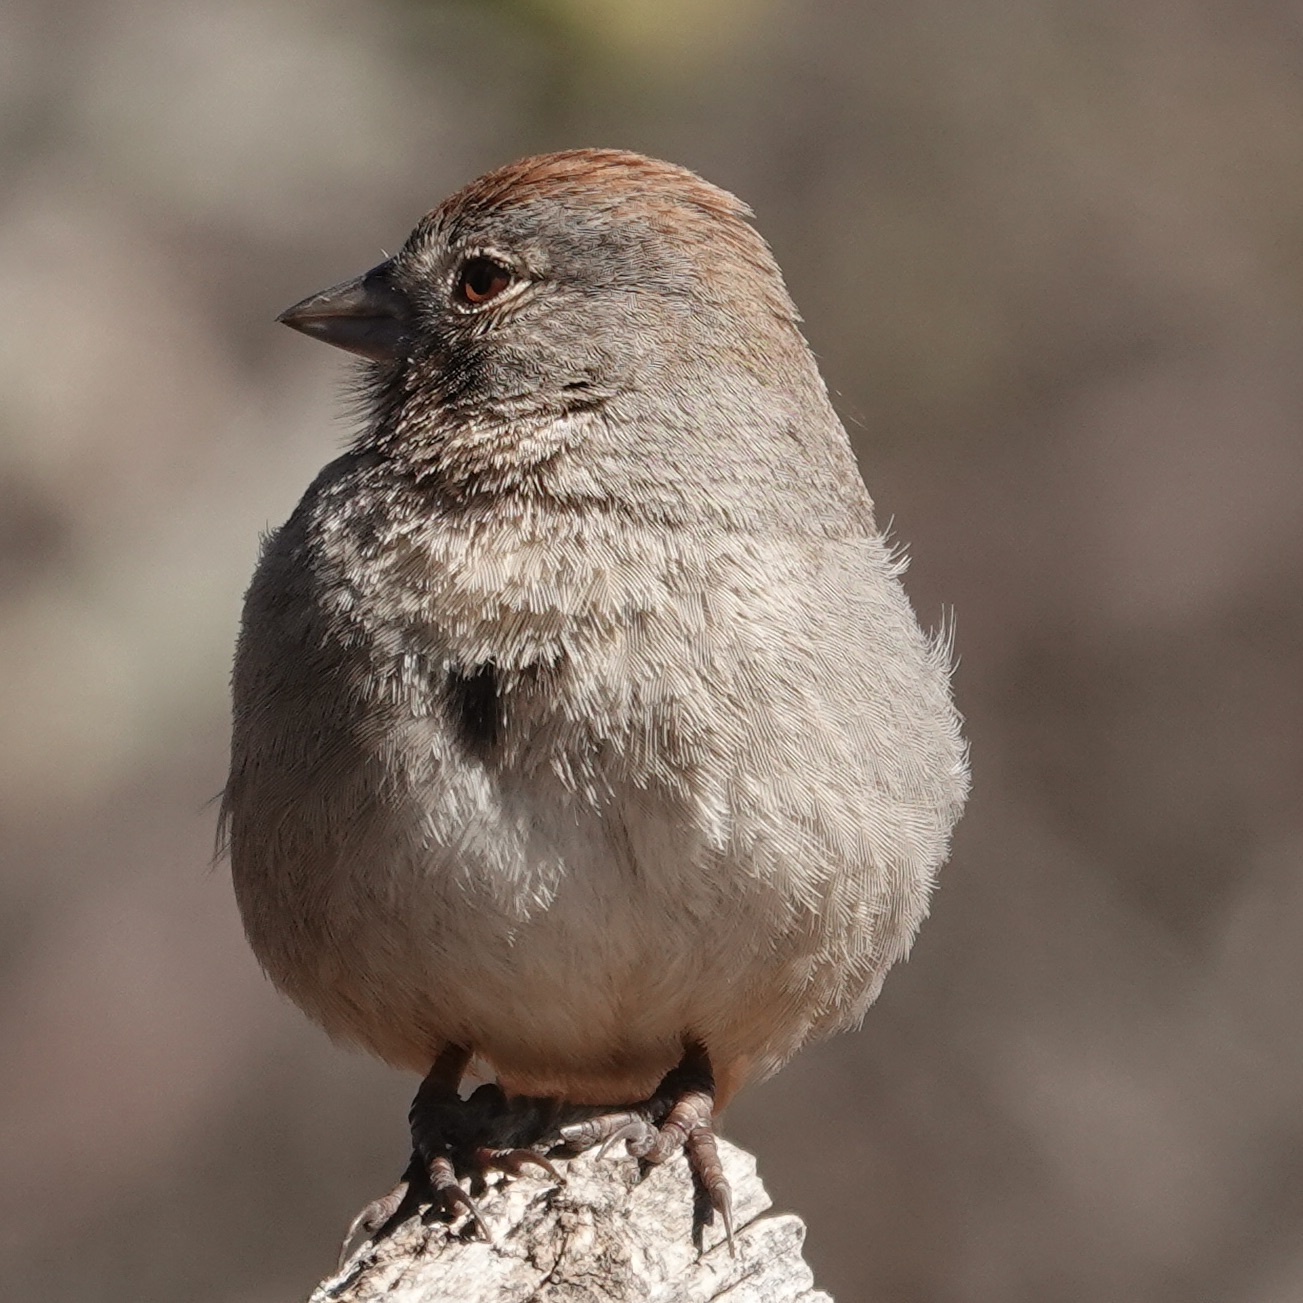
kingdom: Animalia
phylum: Chordata
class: Aves
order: Passeriformes
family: Passerellidae
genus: Melozone
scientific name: Melozone fusca
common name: Canyon towhee
